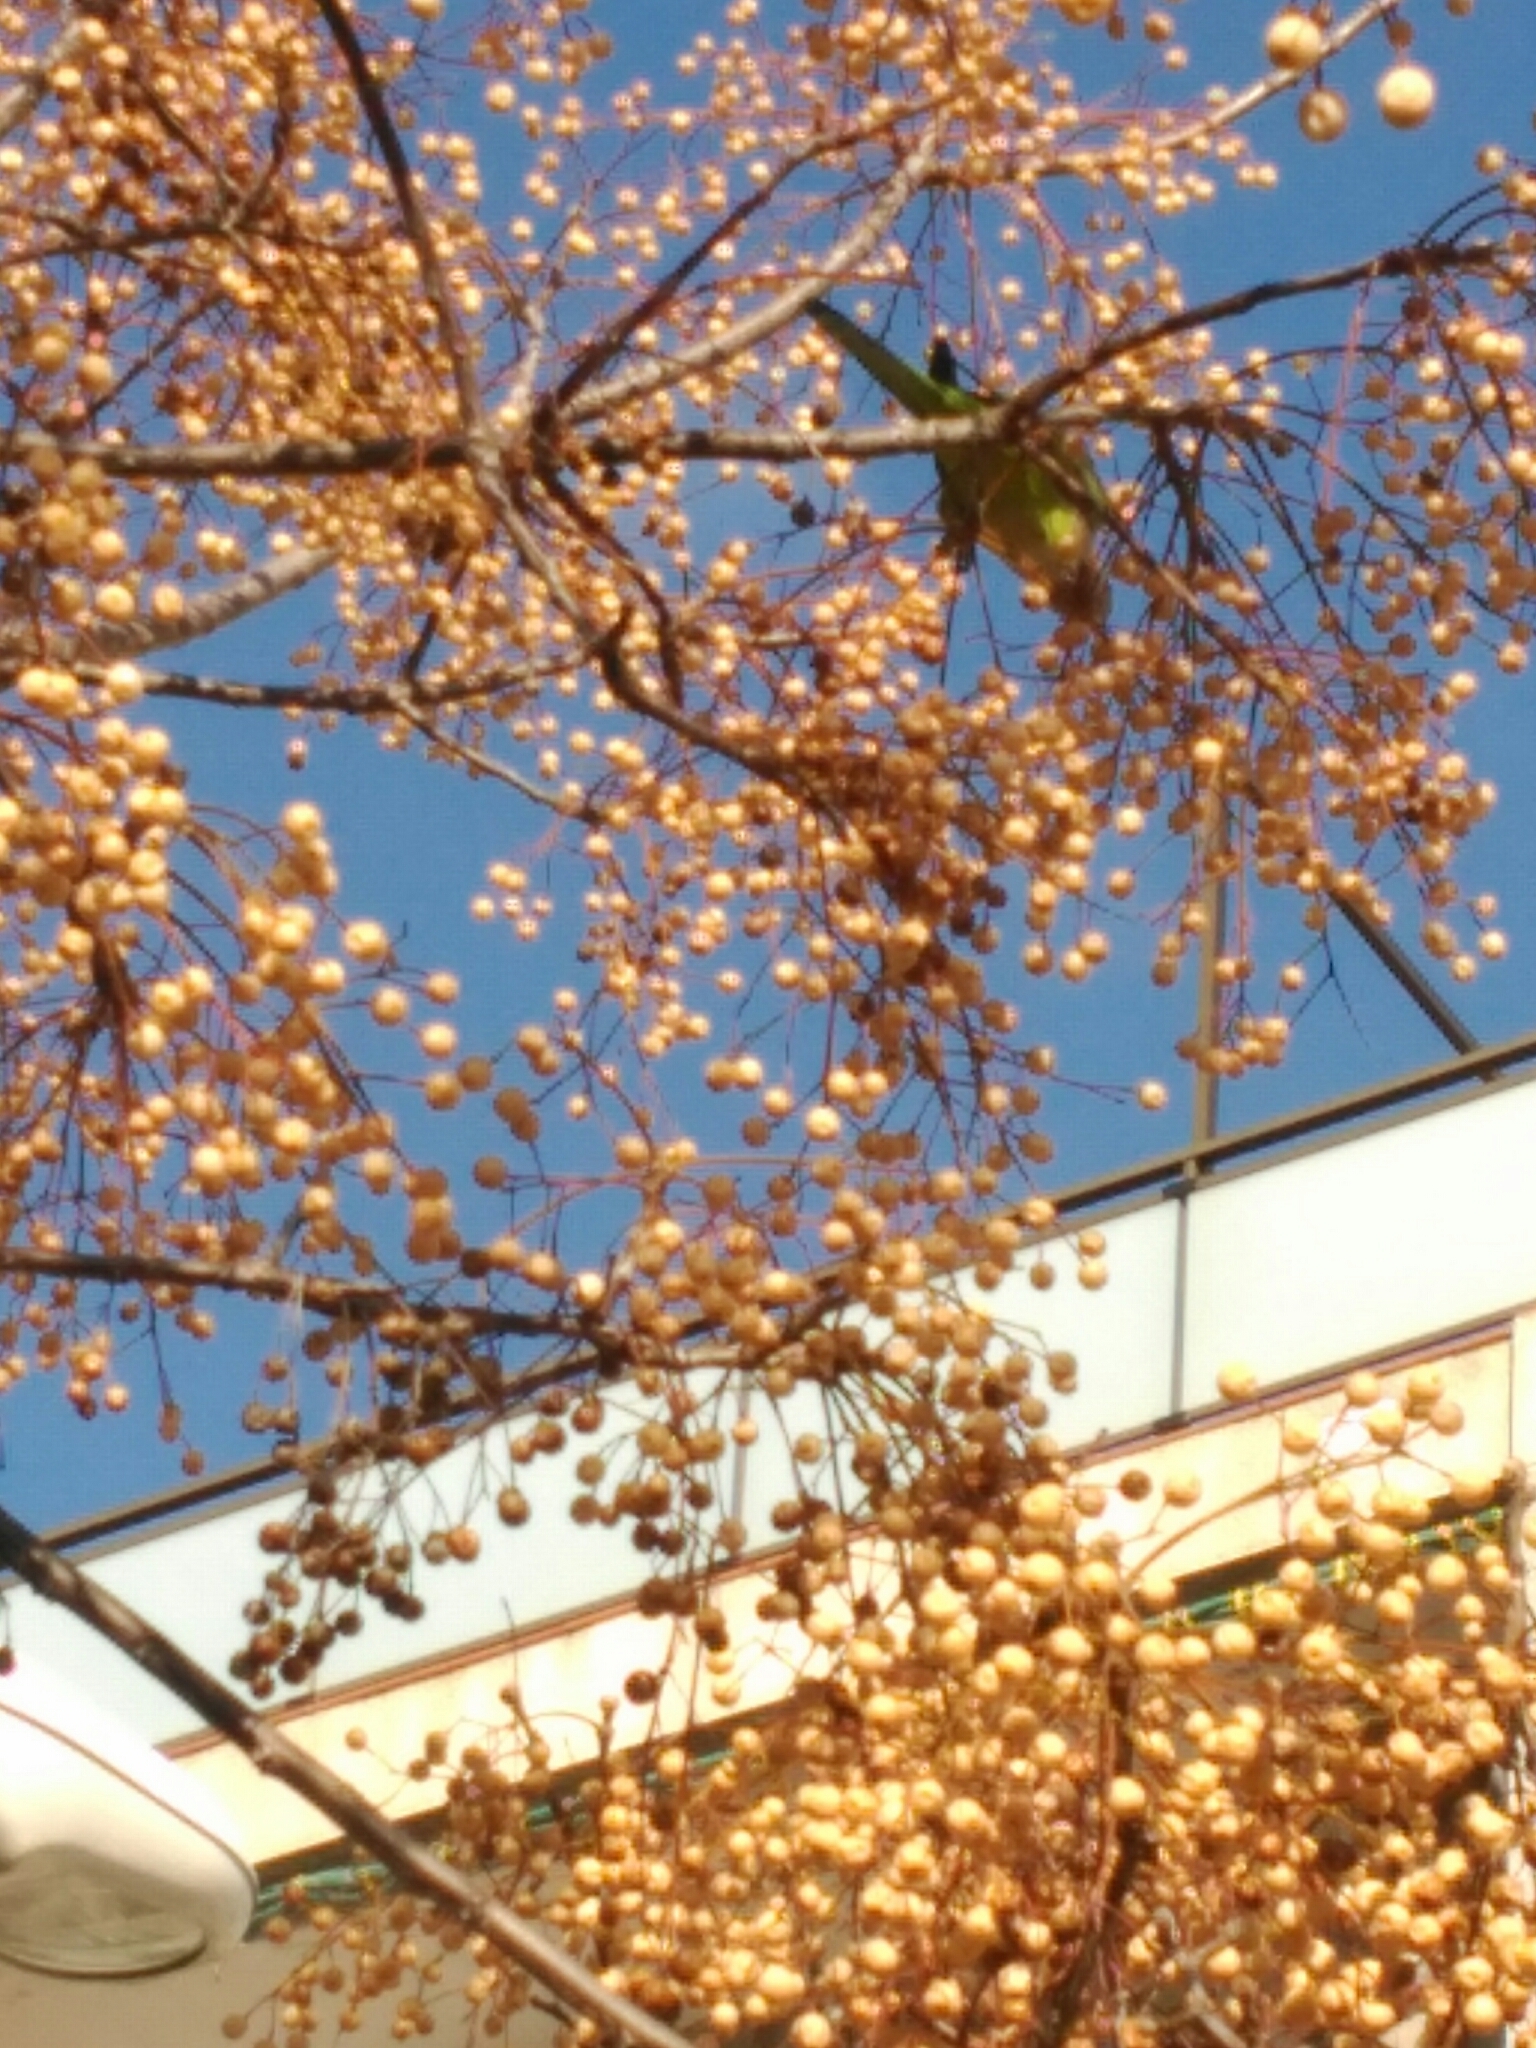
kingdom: Animalia
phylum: Chordata
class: Aves
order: Psittaciformes
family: Psittacidae
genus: Myiopsitta
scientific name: Myiopsitta monachus
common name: Monk parakeet
